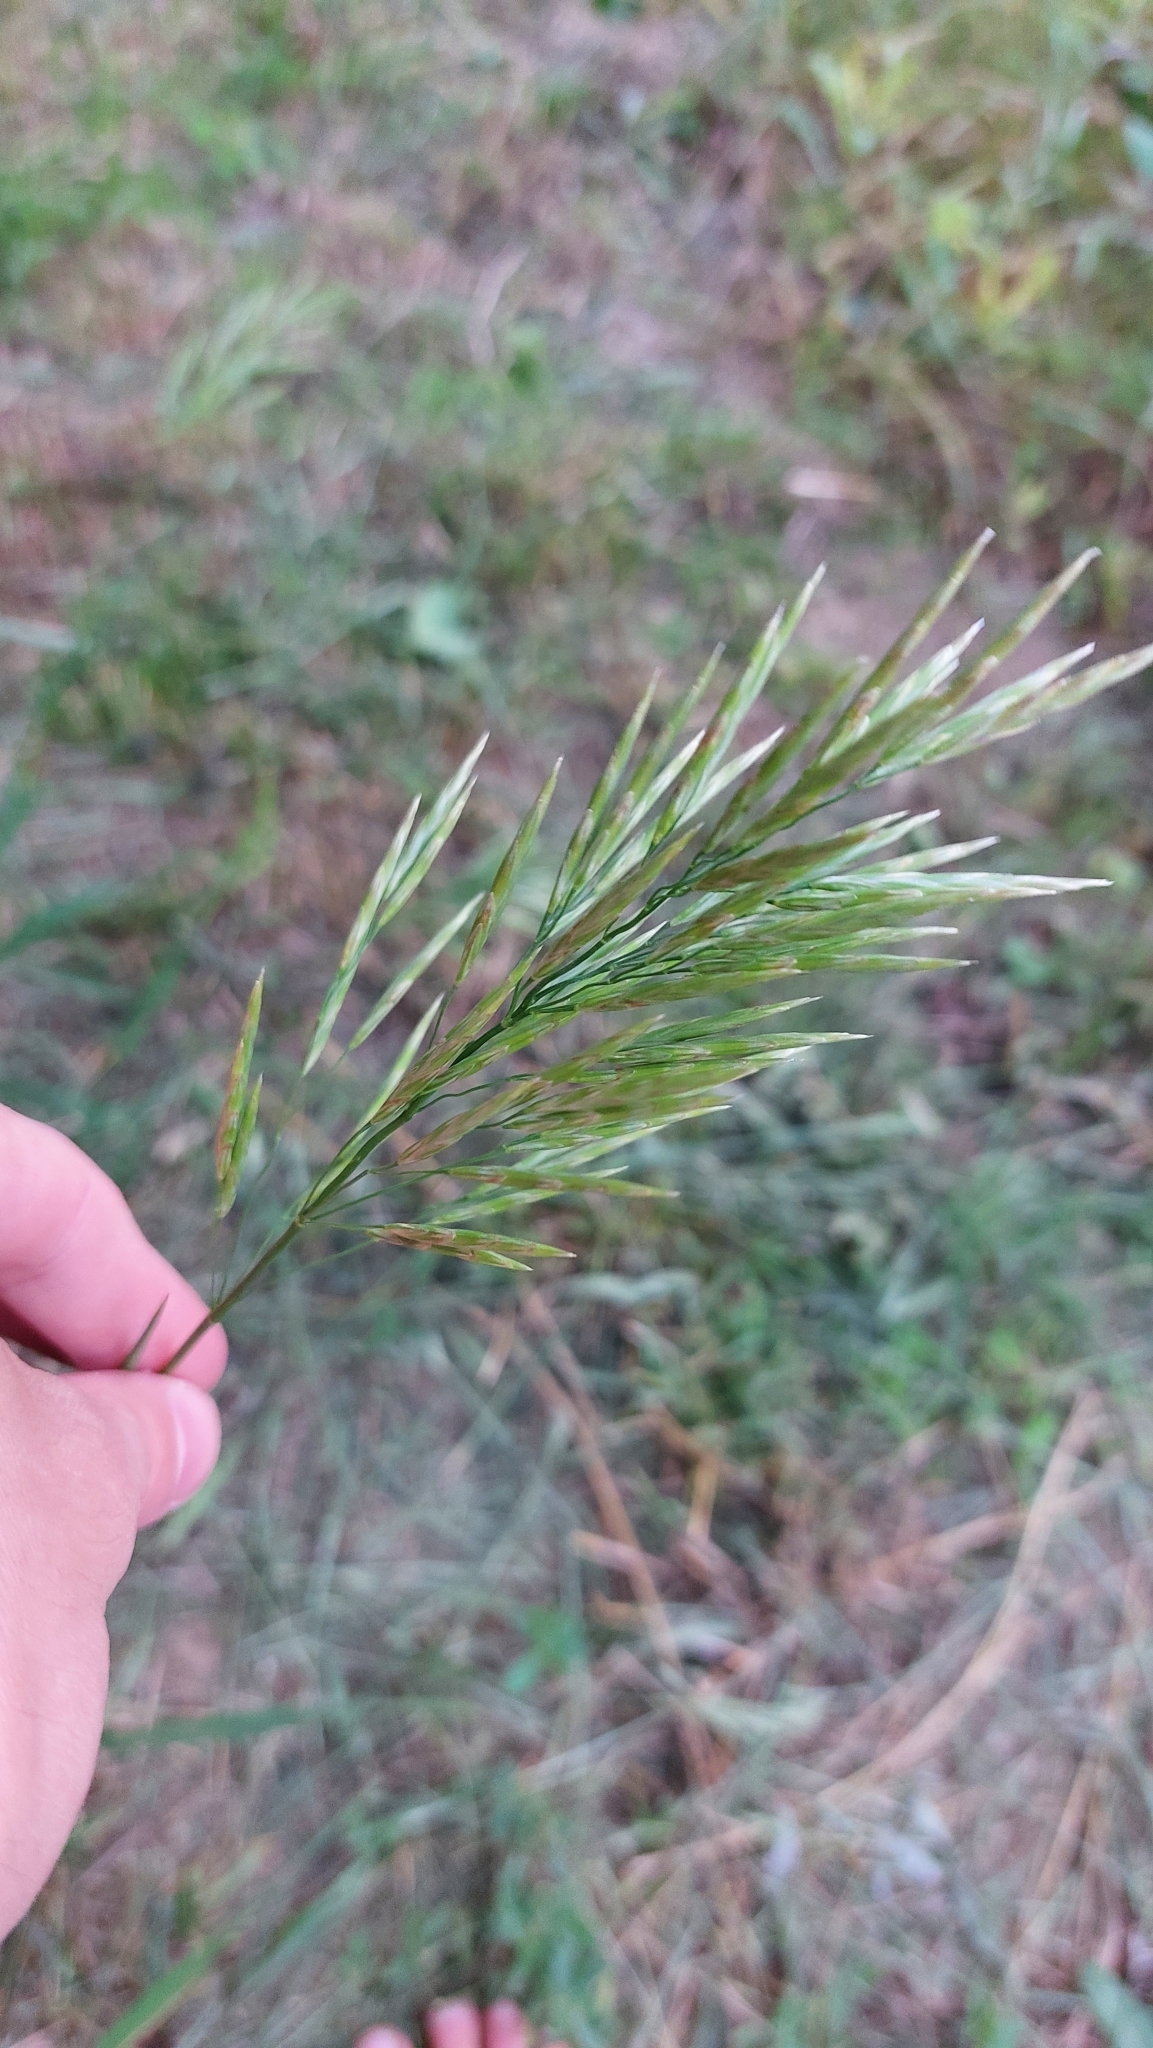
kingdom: Plantae
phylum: Tracheophyta
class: Liliopsida
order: Poales
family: Poaceae
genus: Bromus
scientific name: Bromus inermis
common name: Smooth brome
